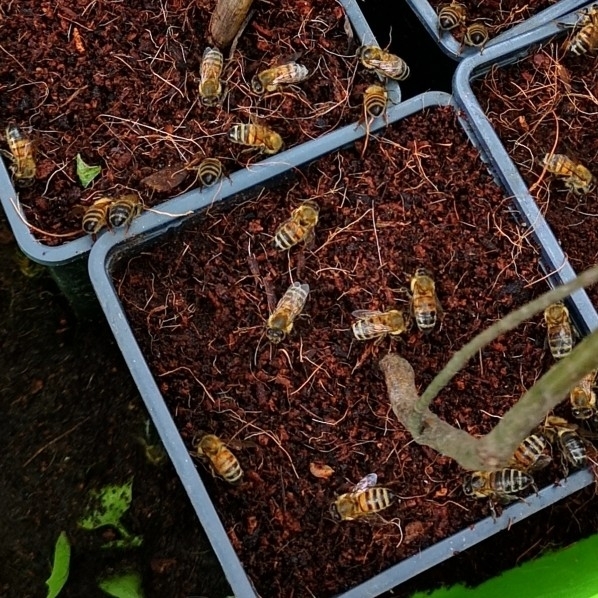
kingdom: Animalia
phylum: Arthropoda
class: Insecta
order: Hymenoptera
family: Apidae
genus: Apis
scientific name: Apis mellifera
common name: Honey bee
